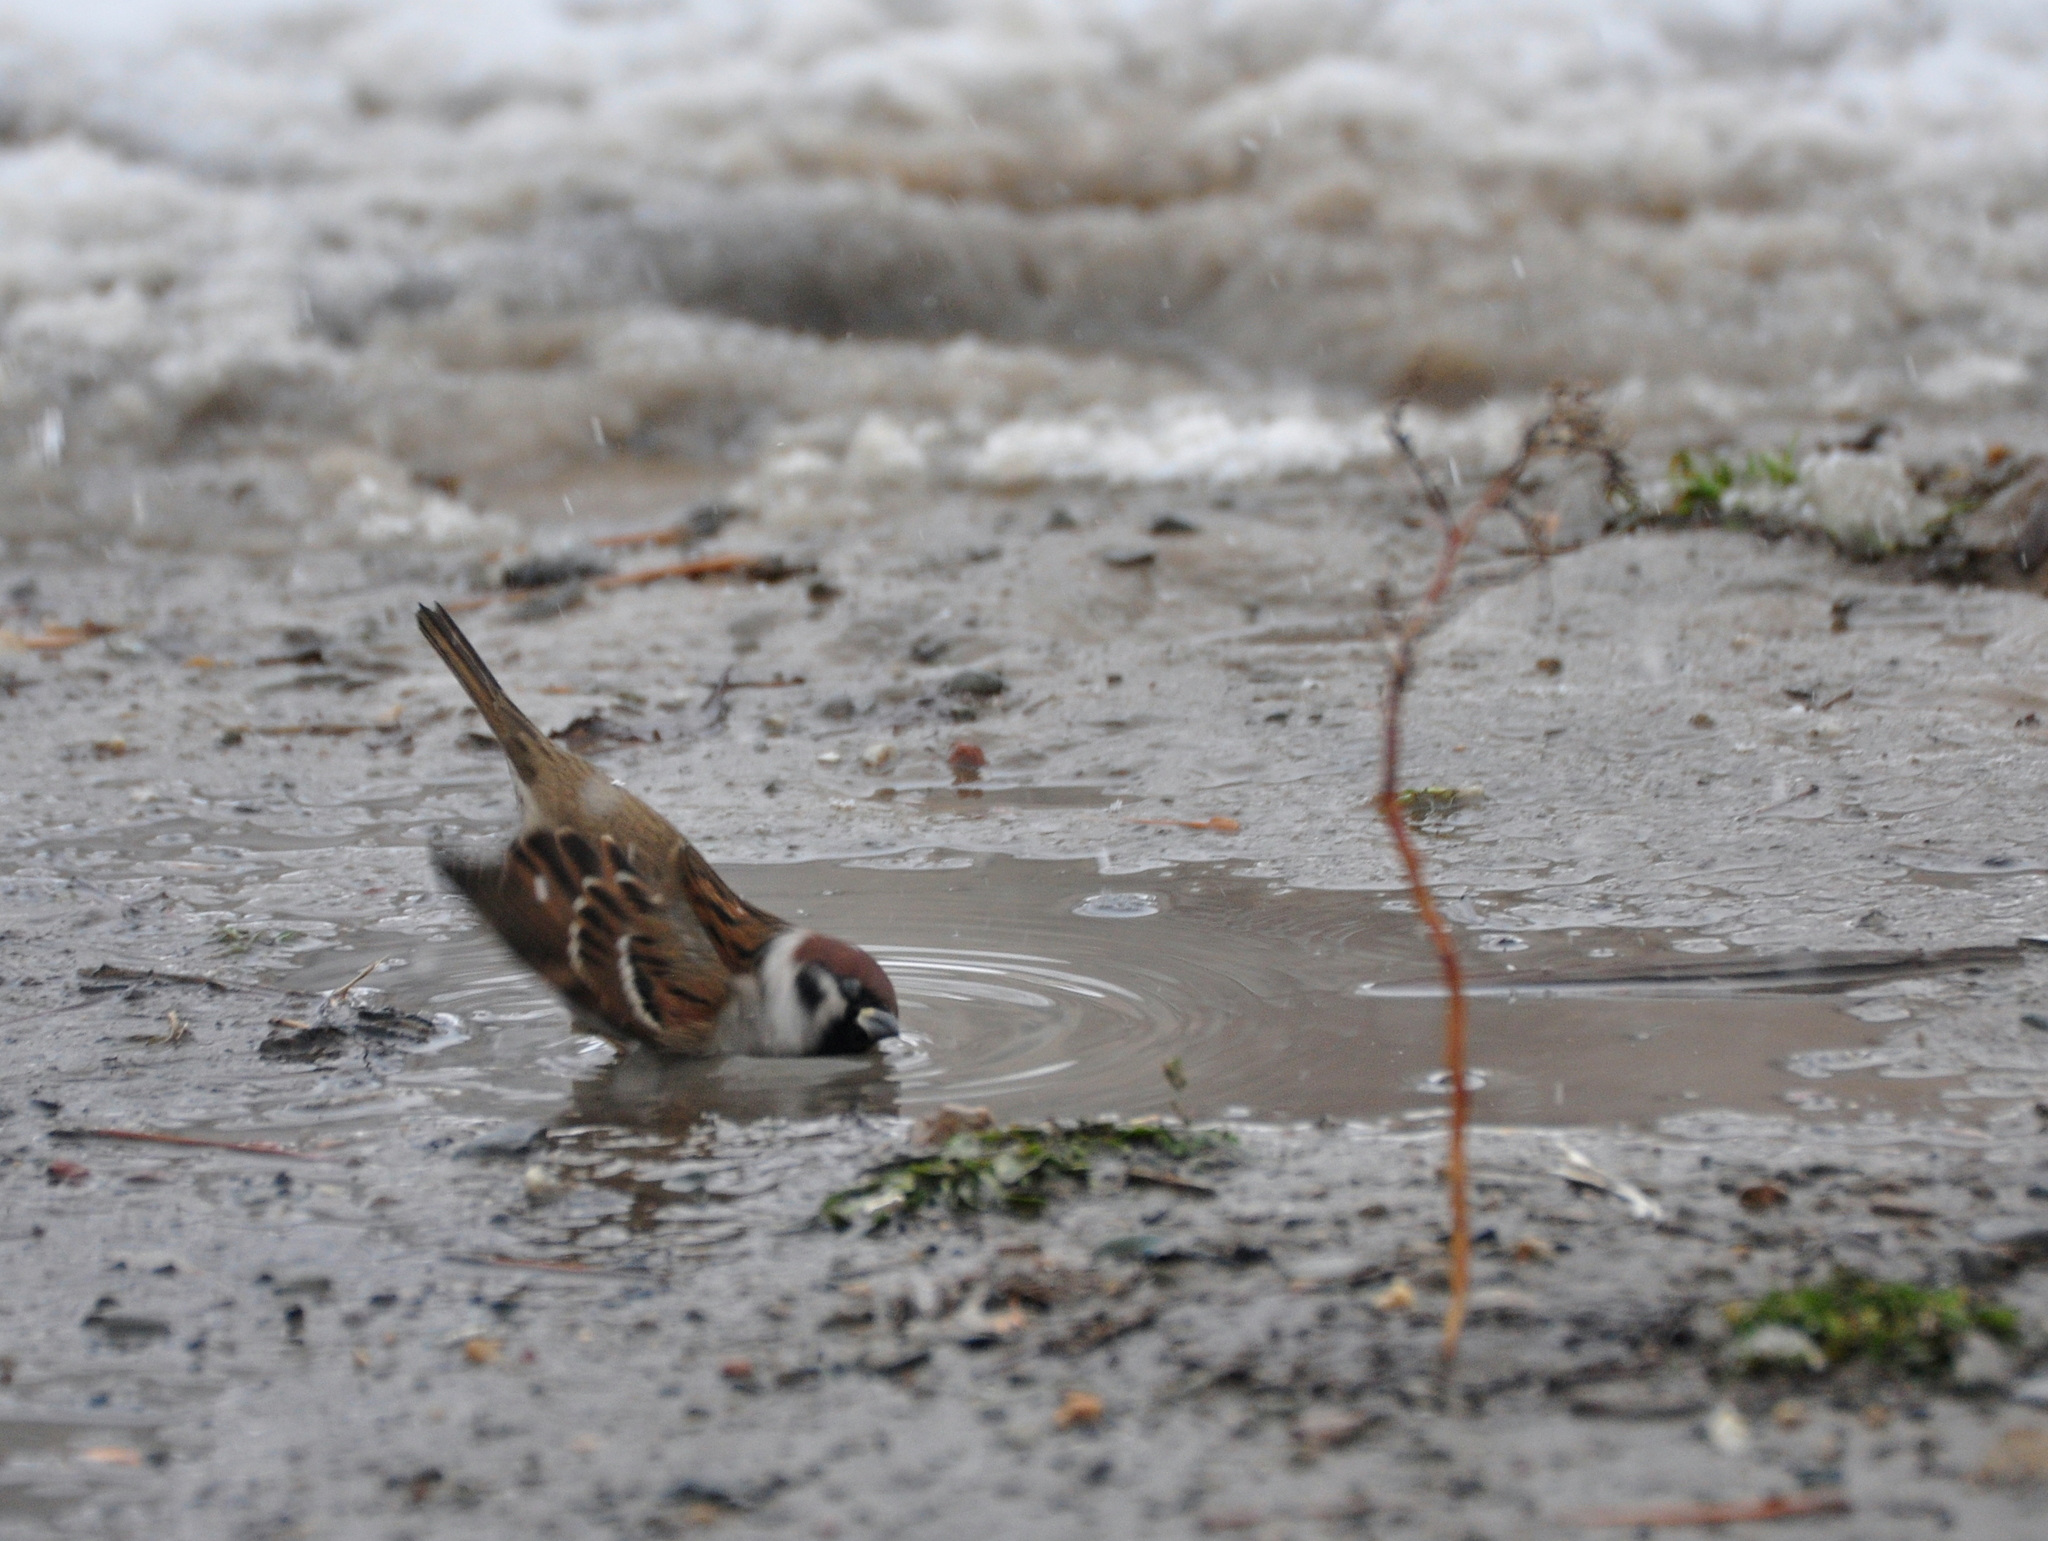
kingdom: Animalia
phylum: Chordata
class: Aves
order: Passeriformes
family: Passeridae
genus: Passer
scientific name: Passer montanus
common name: Eurasian tree sparrow
